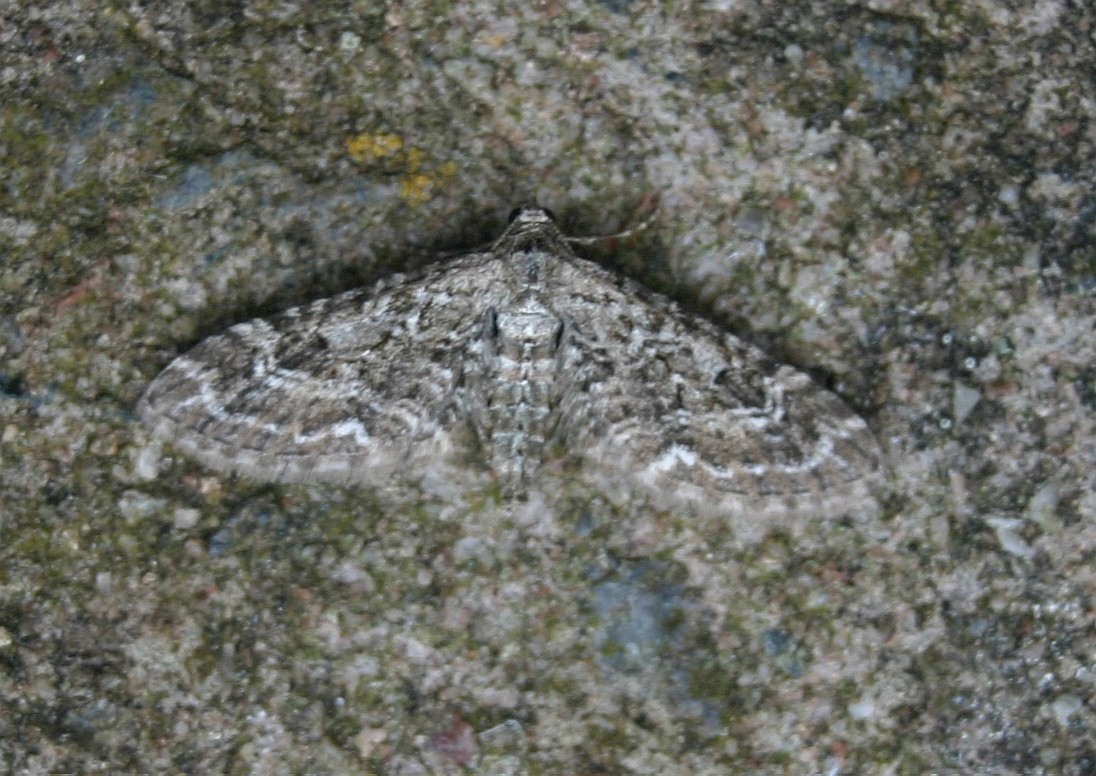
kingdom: Animalia
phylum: Arthropoda
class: Insecta
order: Lepidoptera
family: Geometridae
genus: Eupithecia
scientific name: Eupithecia nanata
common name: Narrow-winged pug
